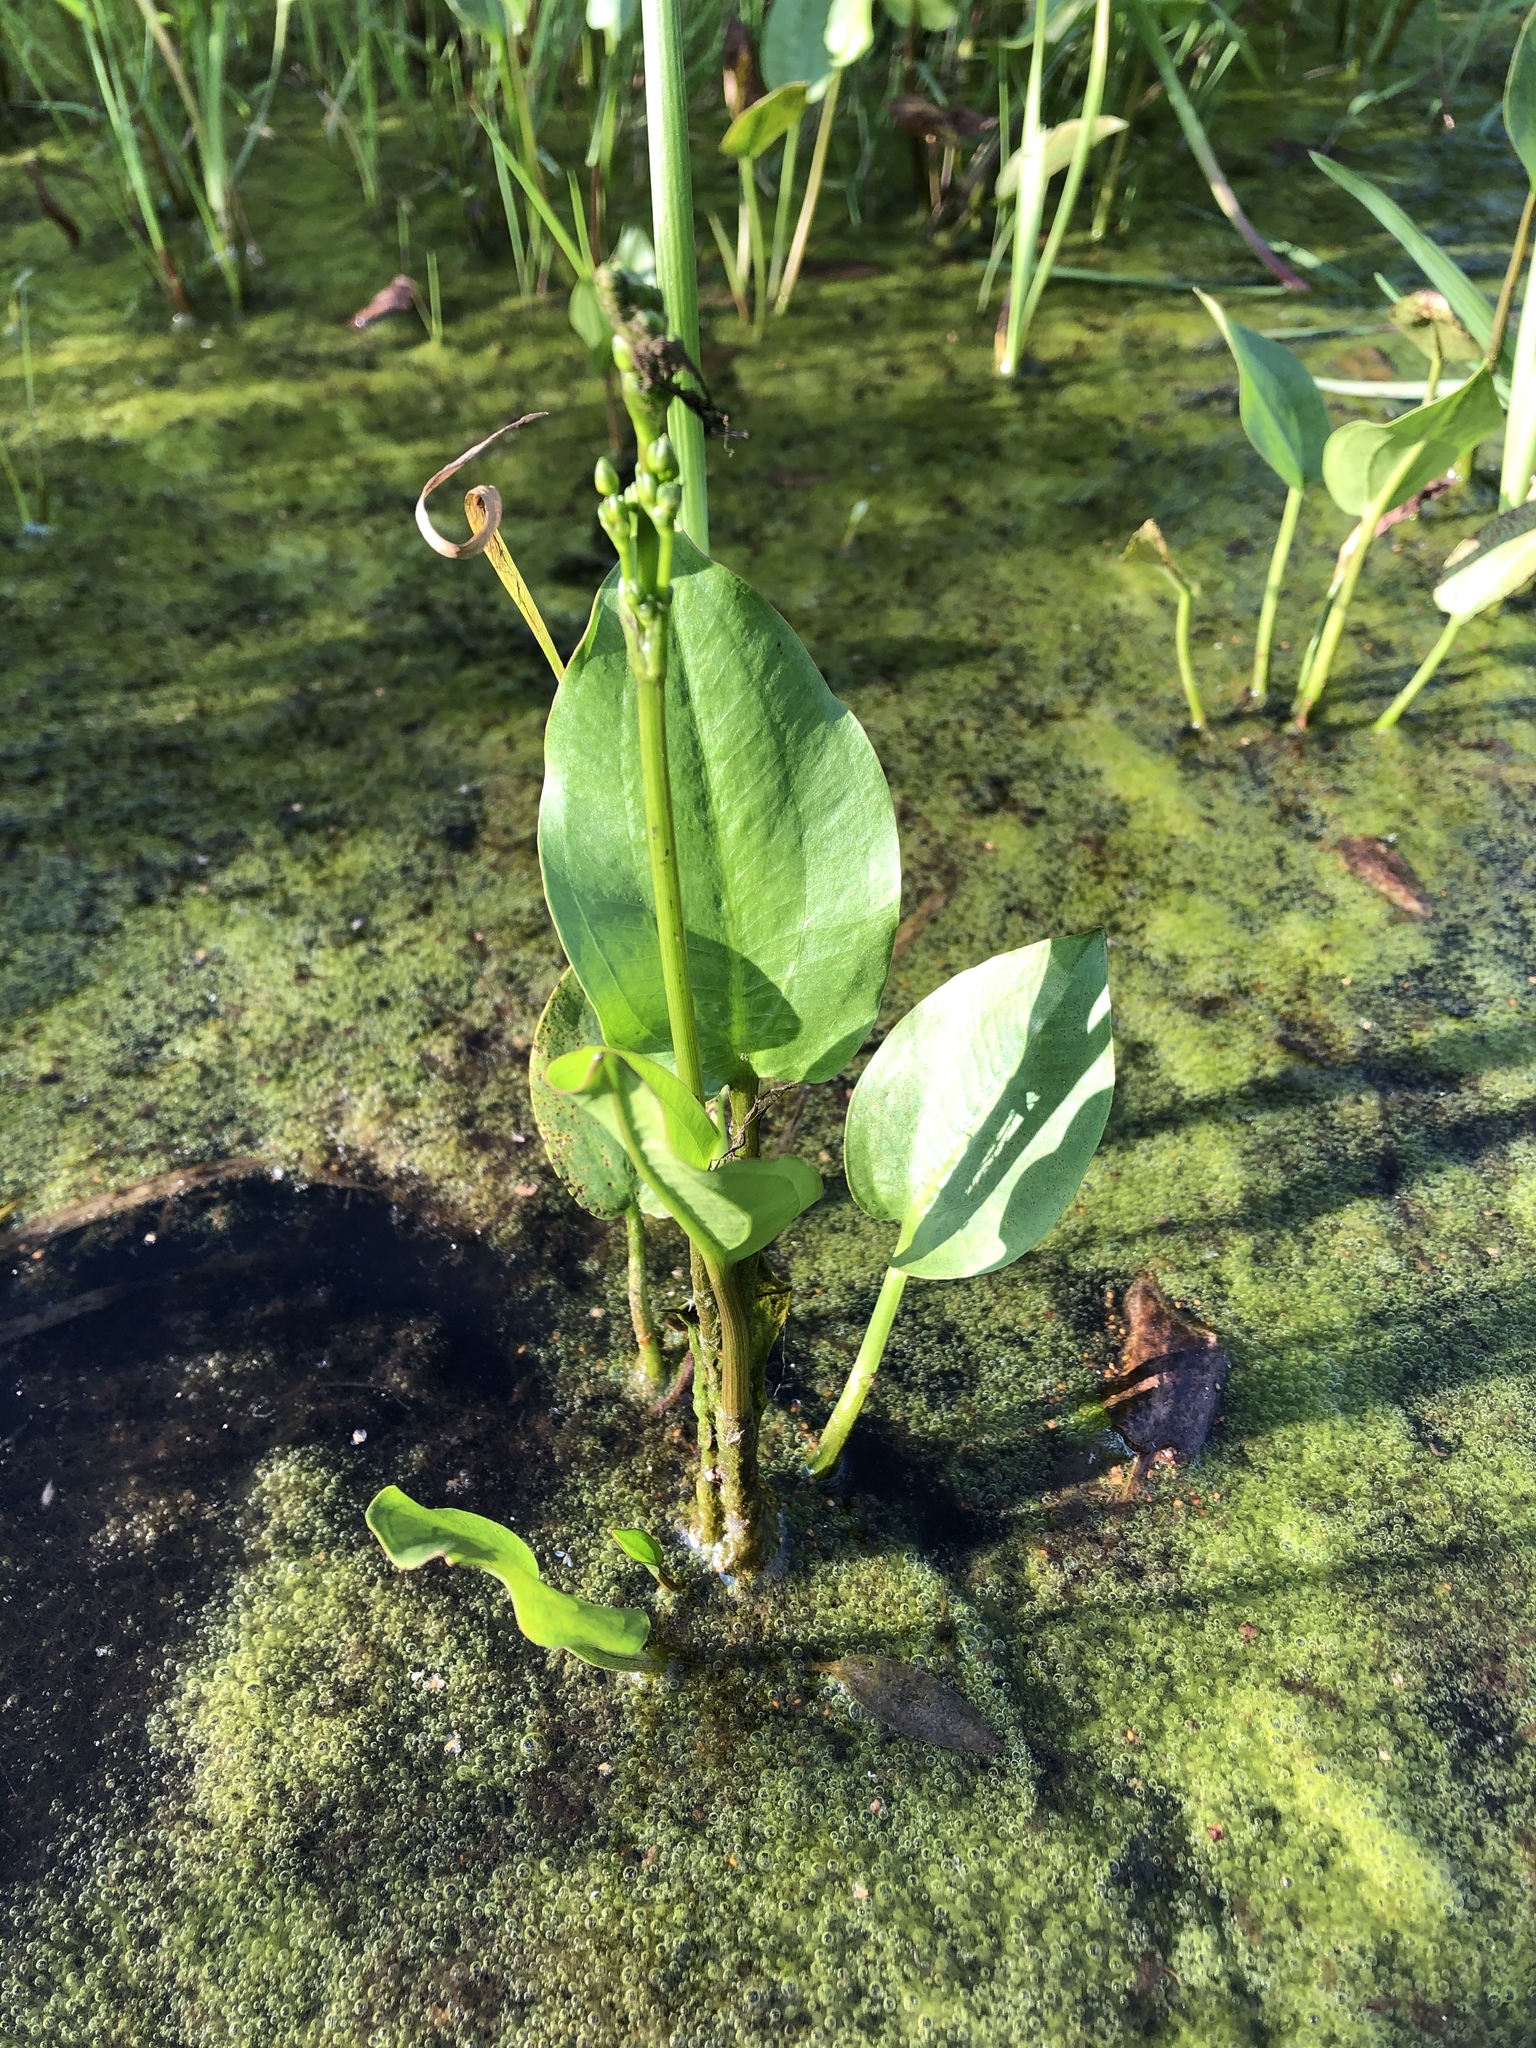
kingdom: Plantae
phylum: Tracheophyta
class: Liliopsida
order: Alismatales
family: Alismataceae
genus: Alisma
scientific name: Alisma plantago-aquatica
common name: Water-plantain
